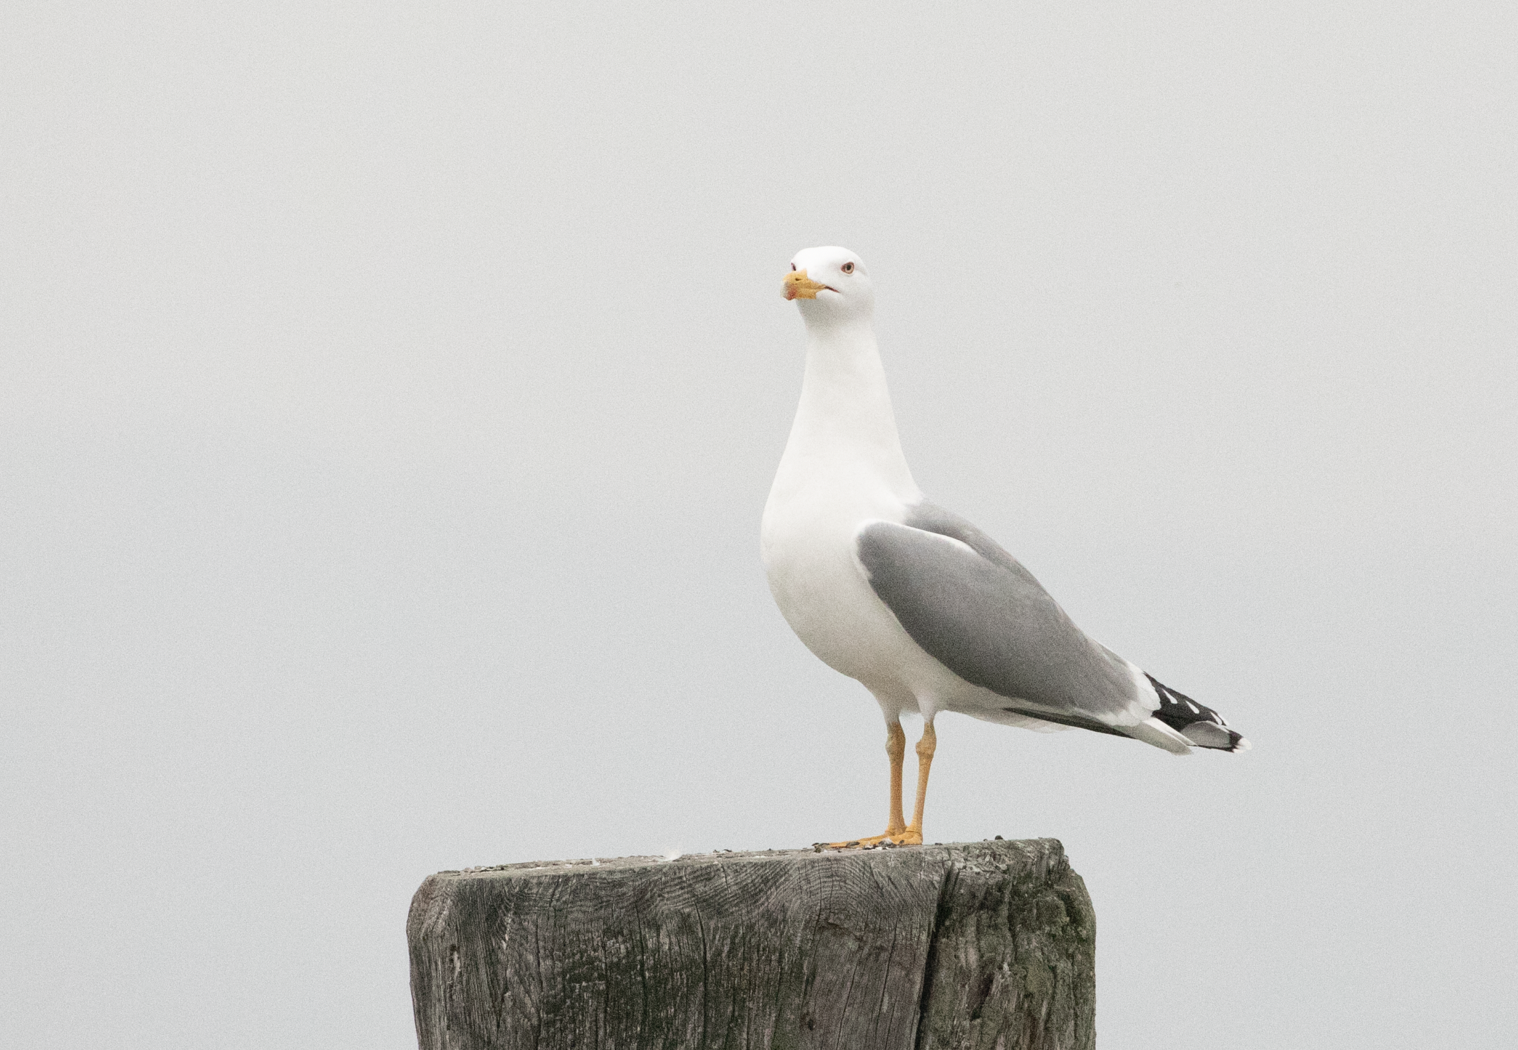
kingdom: Animalia
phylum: Chordata
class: Aves
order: Charadriiformes
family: Laridae
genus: Larus
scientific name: Larus michahellis
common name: Yellow-legged gull
